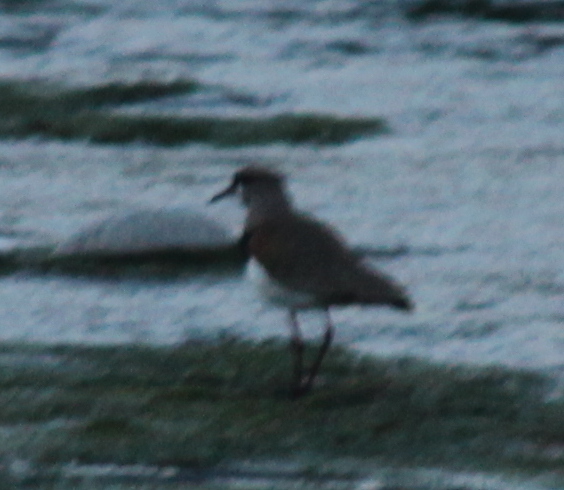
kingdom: Animalia
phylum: Chordata
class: Aves
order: Charadriiformes
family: Charadriidae
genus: Vanellus
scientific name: Vanellus chilensis
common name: Southern lapwing
